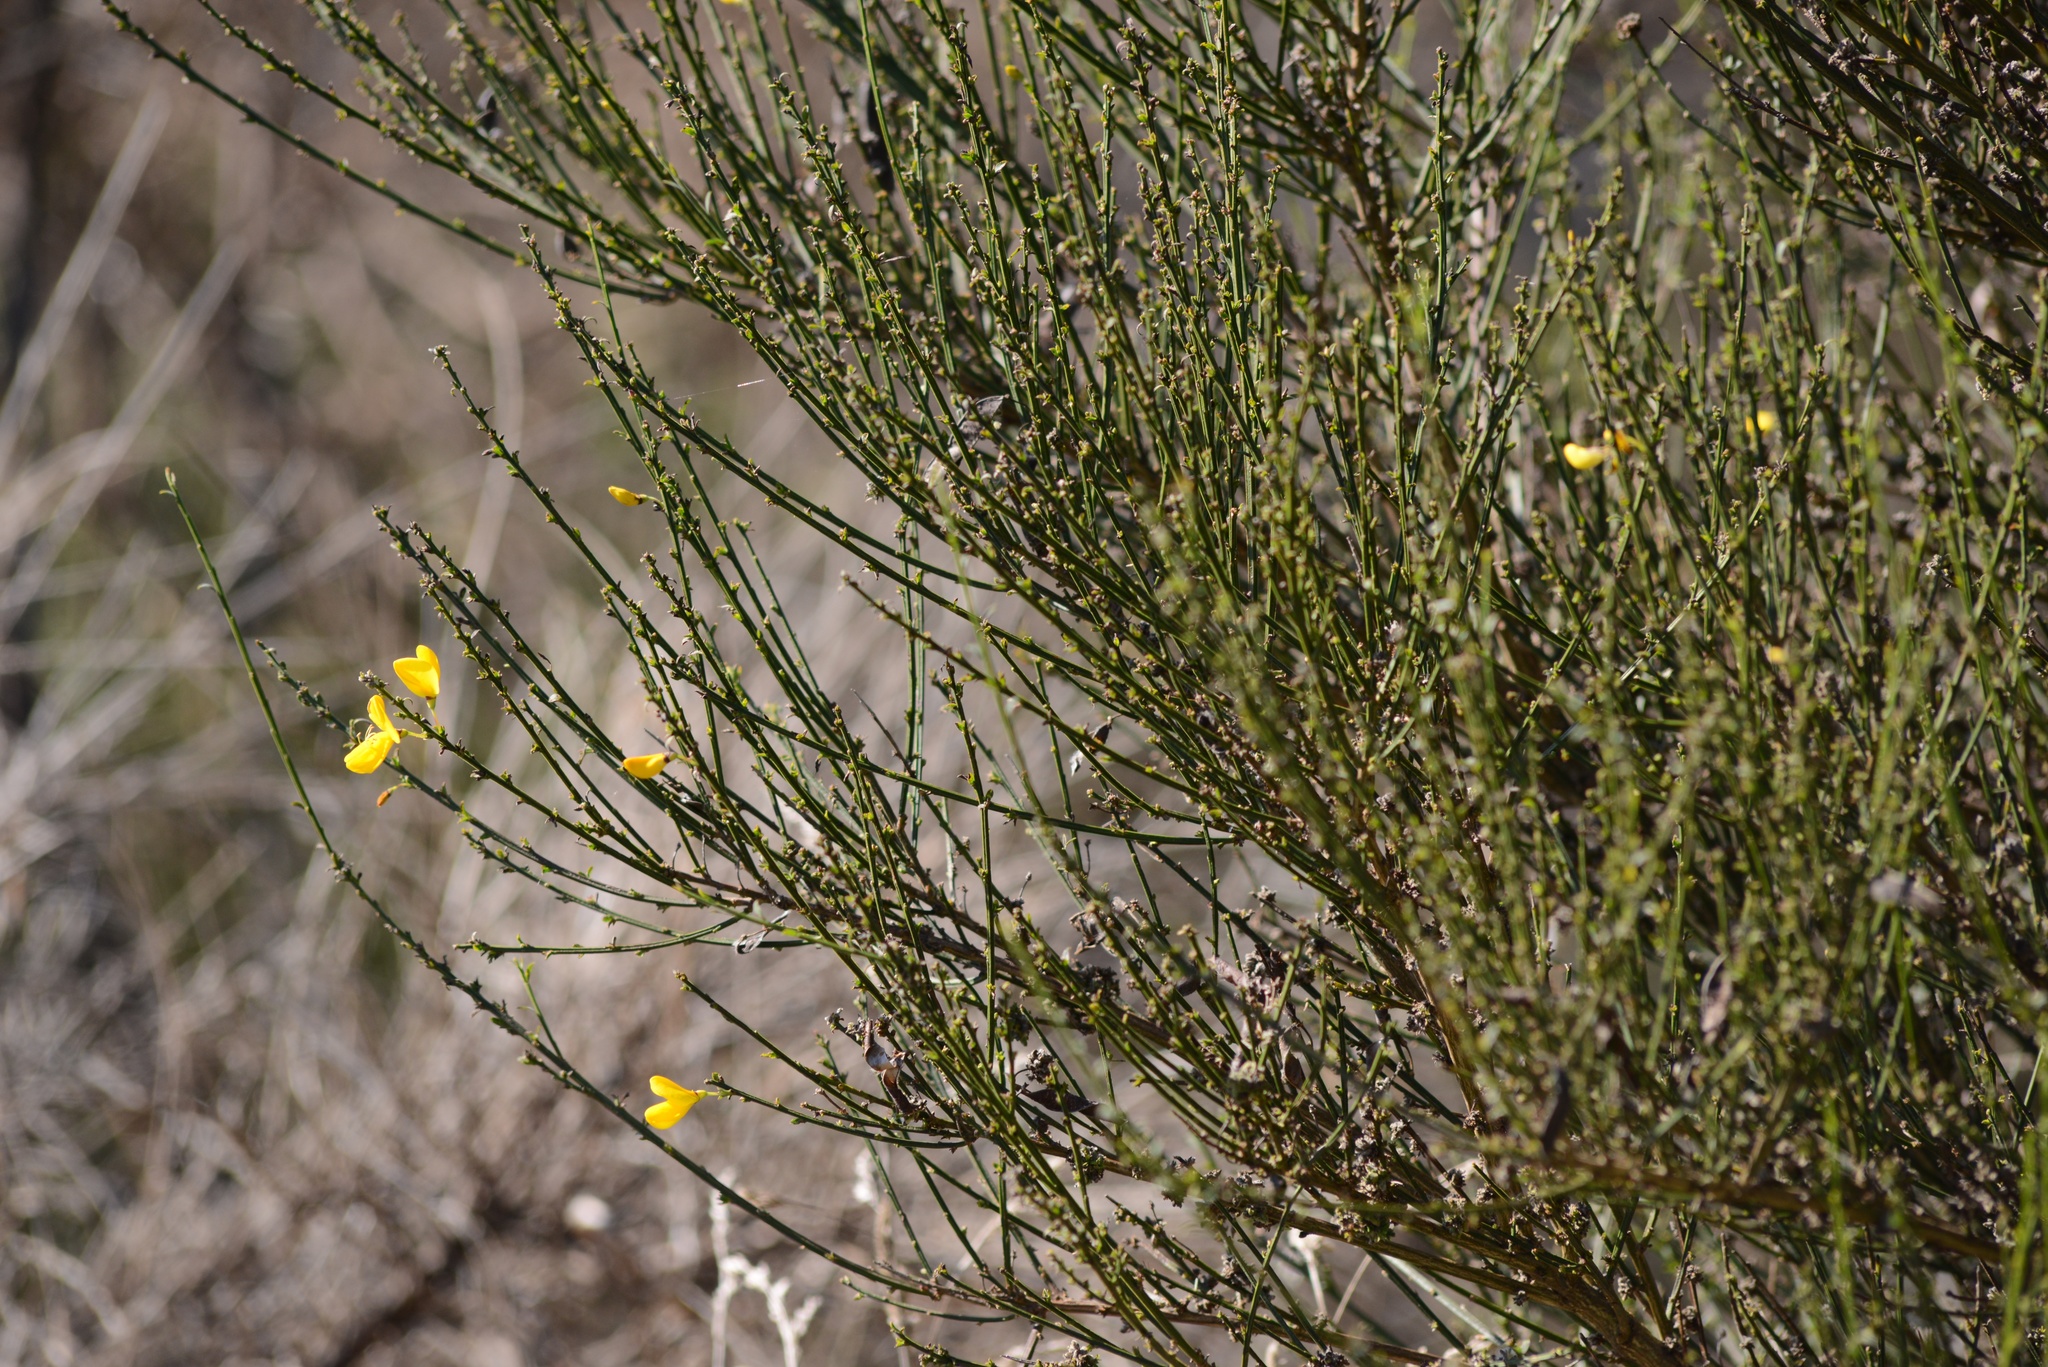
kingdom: Plantae
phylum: Tracheophyta
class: Magnoliopsida
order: Fabales
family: Fabaceae
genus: Cytisus
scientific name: Cytisus scoparius
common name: Scotch broom
